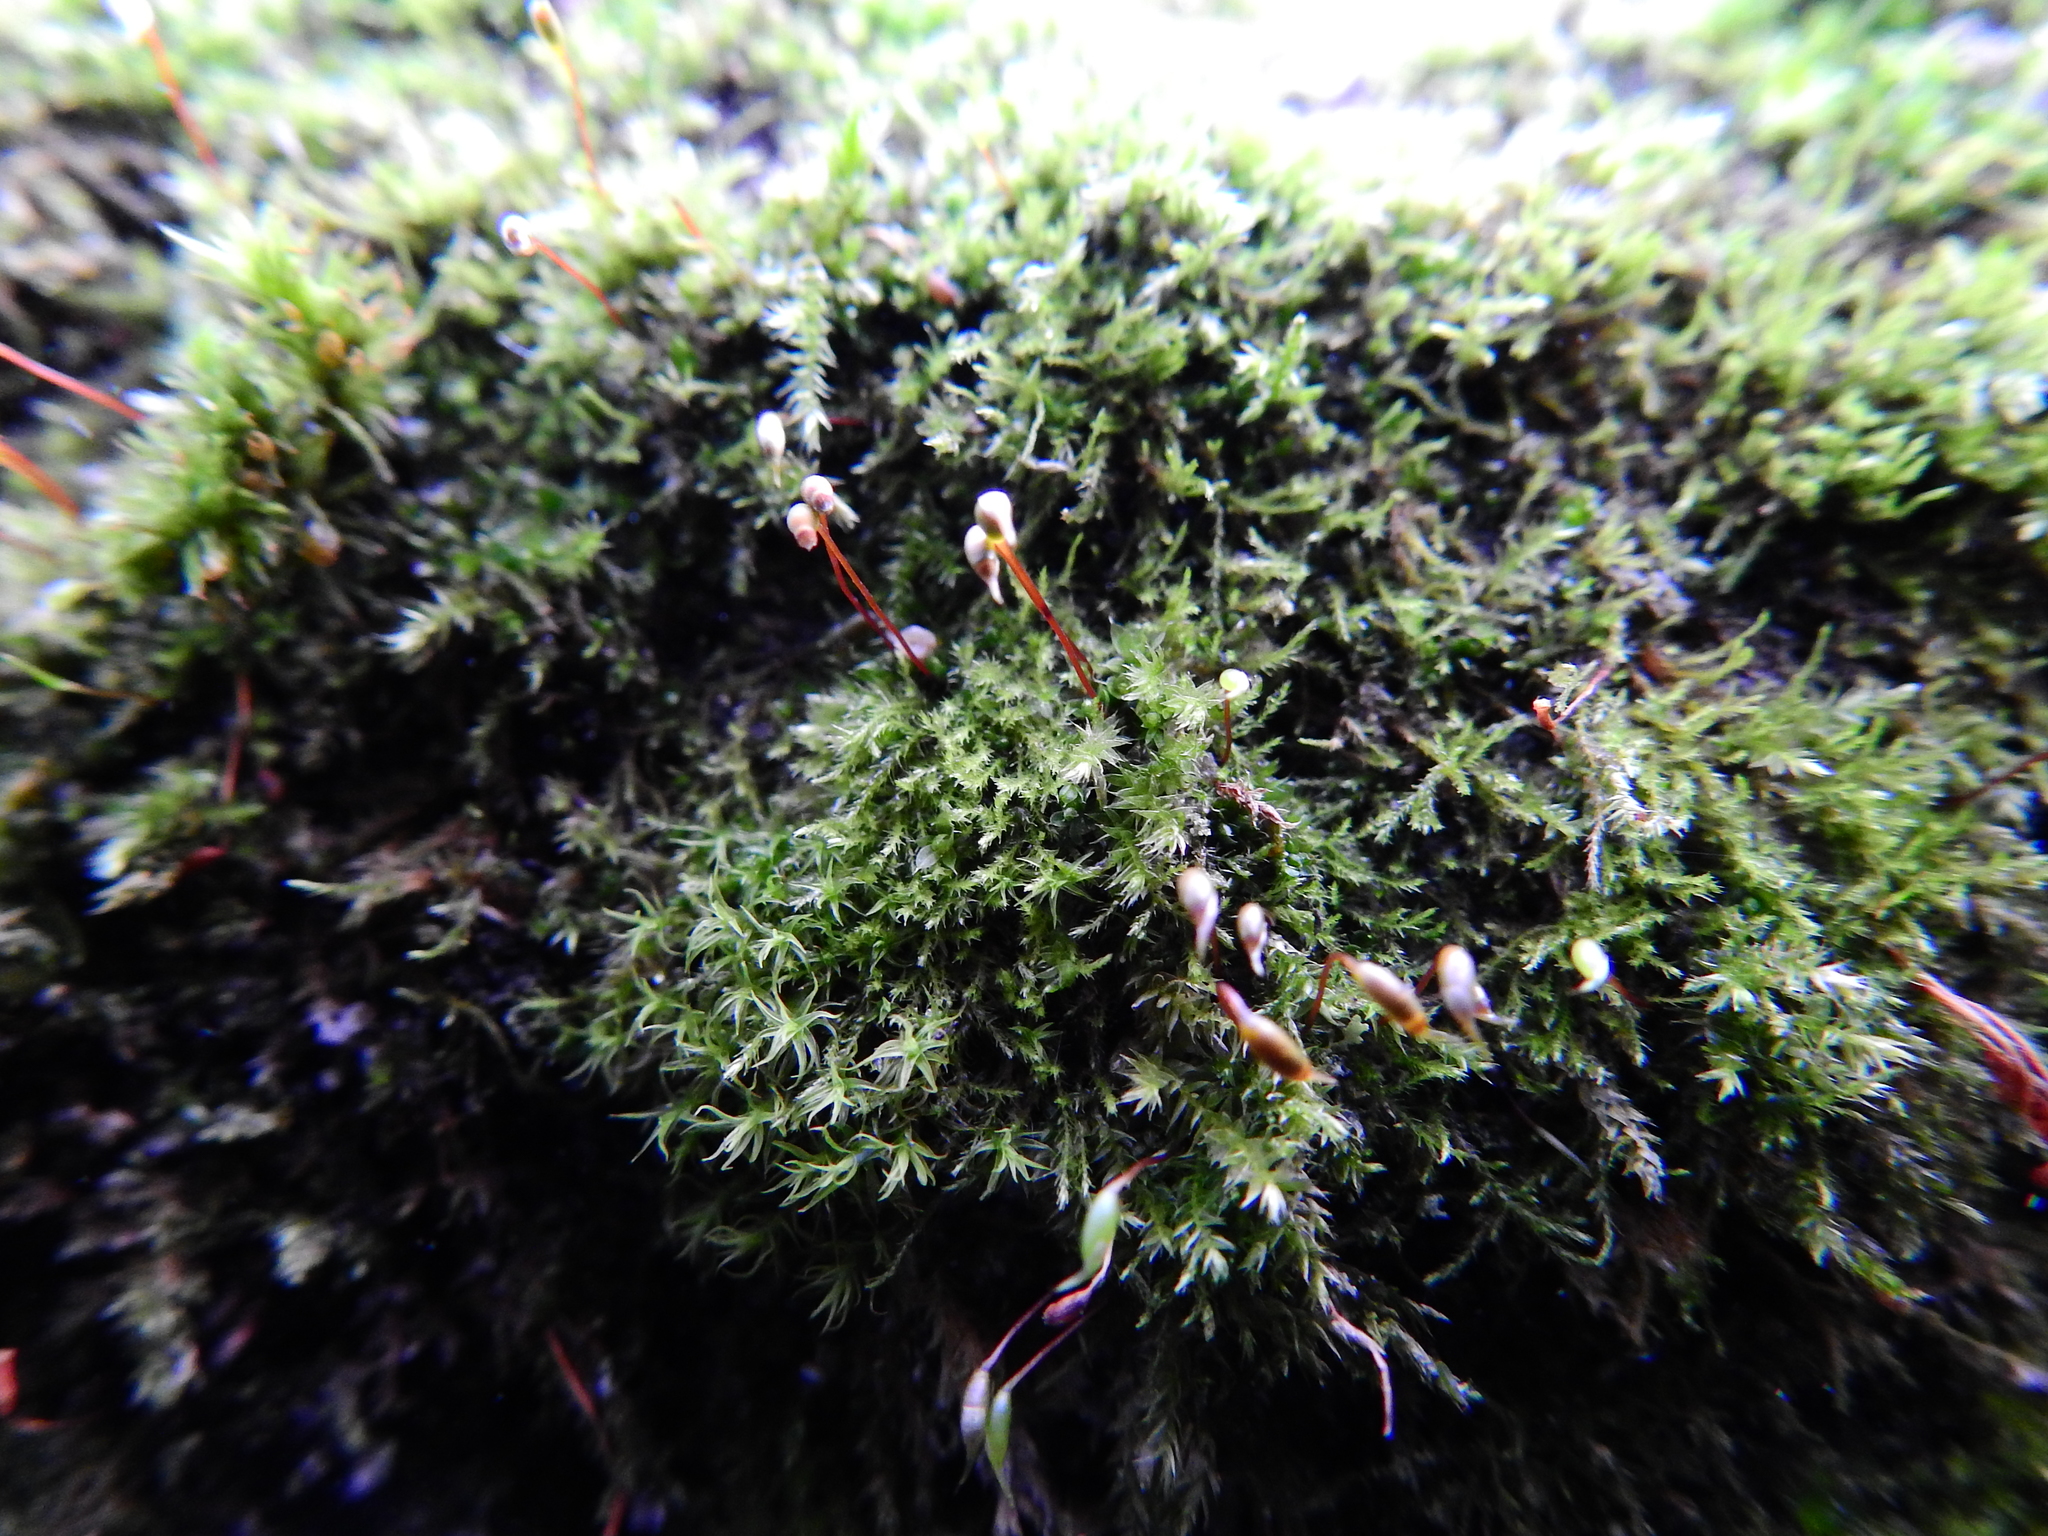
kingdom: Plantae
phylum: Bryophyta
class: Bryopsida
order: Hypnales
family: Brachytheciaceae
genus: Rhynchostegium
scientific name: Rhynchostegium confertum
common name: Clustered feather-moss
